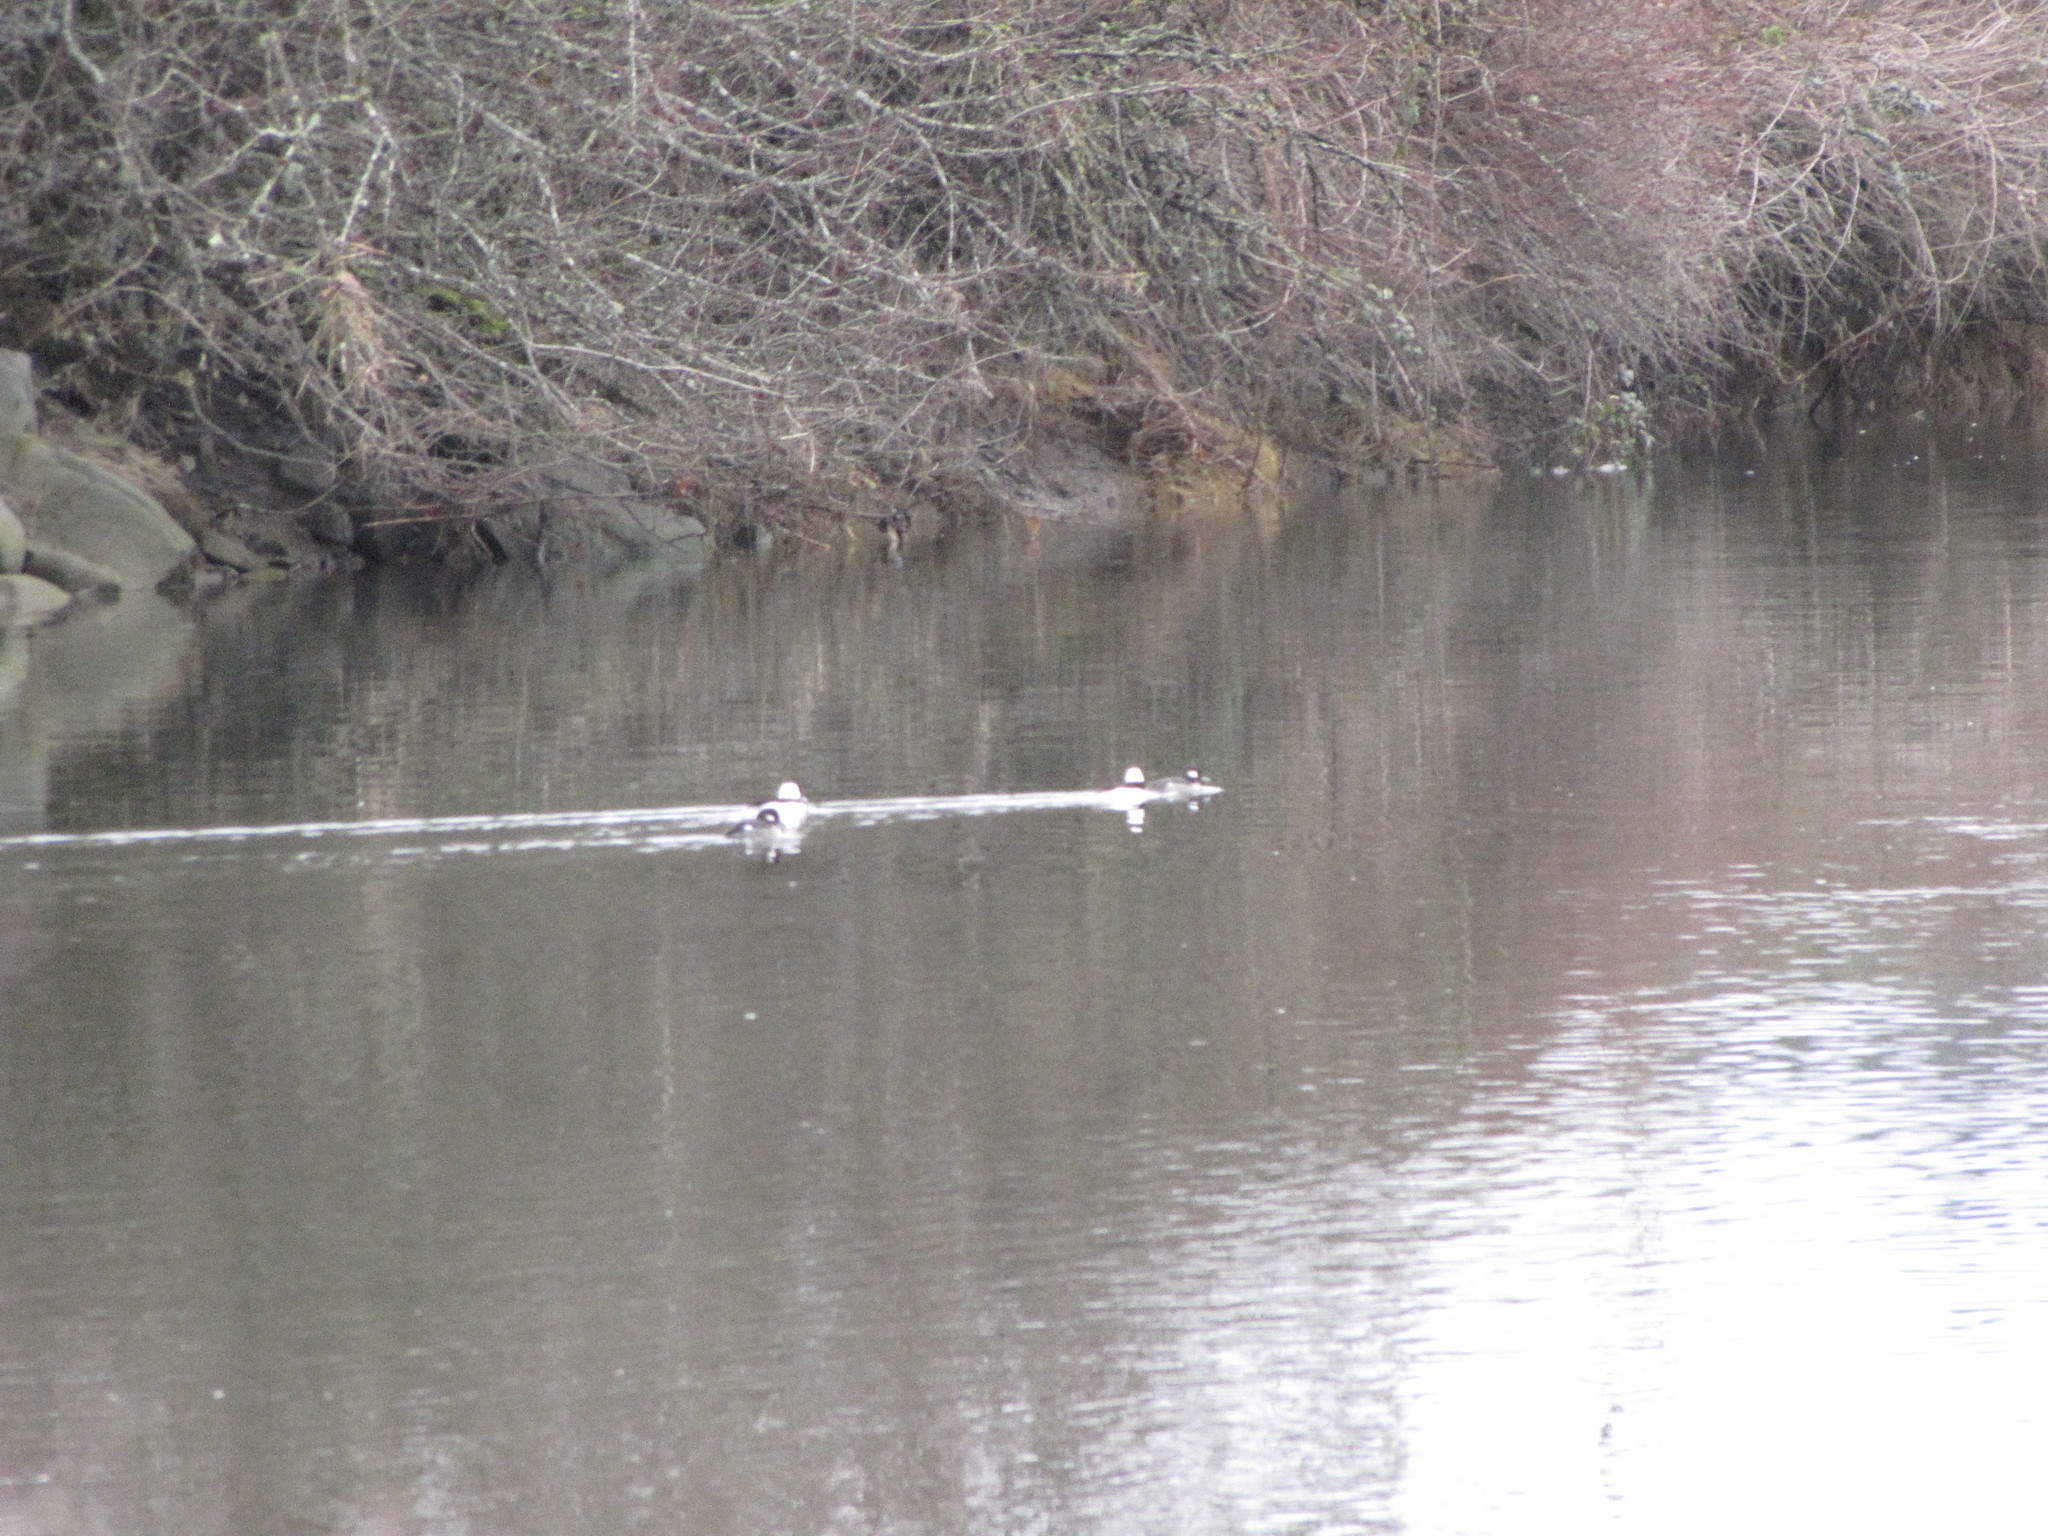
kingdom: Animalia
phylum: Chordata
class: Aves
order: Anseriformes
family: Anatidae
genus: Bucephala
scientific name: Bucephala albeola
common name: Bufflehead
